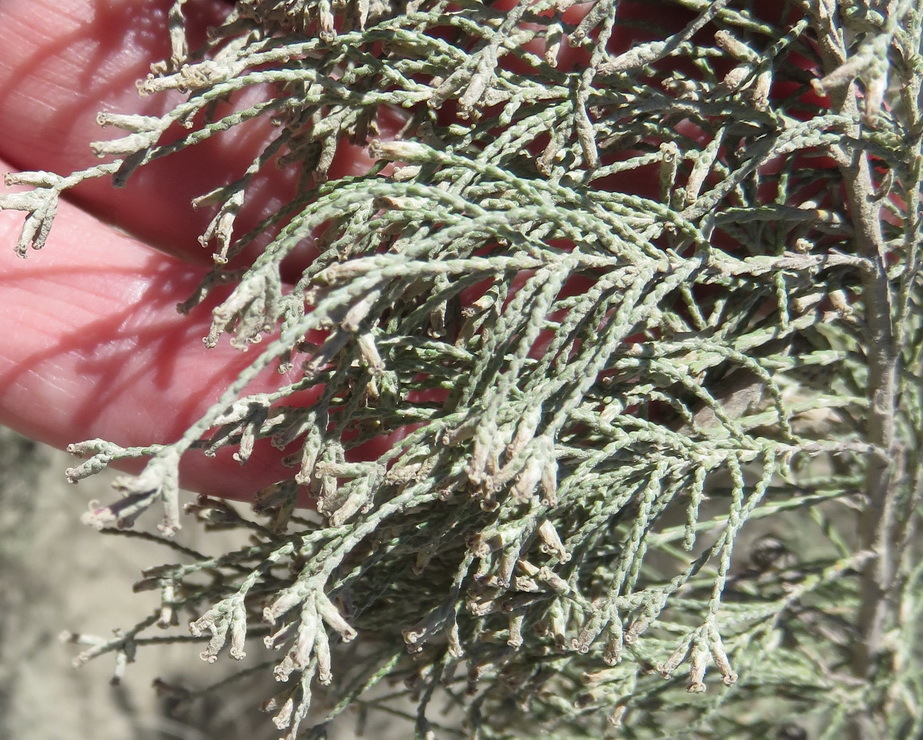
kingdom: Plantae
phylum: Tracheophyta
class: Magnoliopsida
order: Asterales
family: Asteraceae
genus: Dicerothamnus
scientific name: Dicerothamnus rhinocerotis
